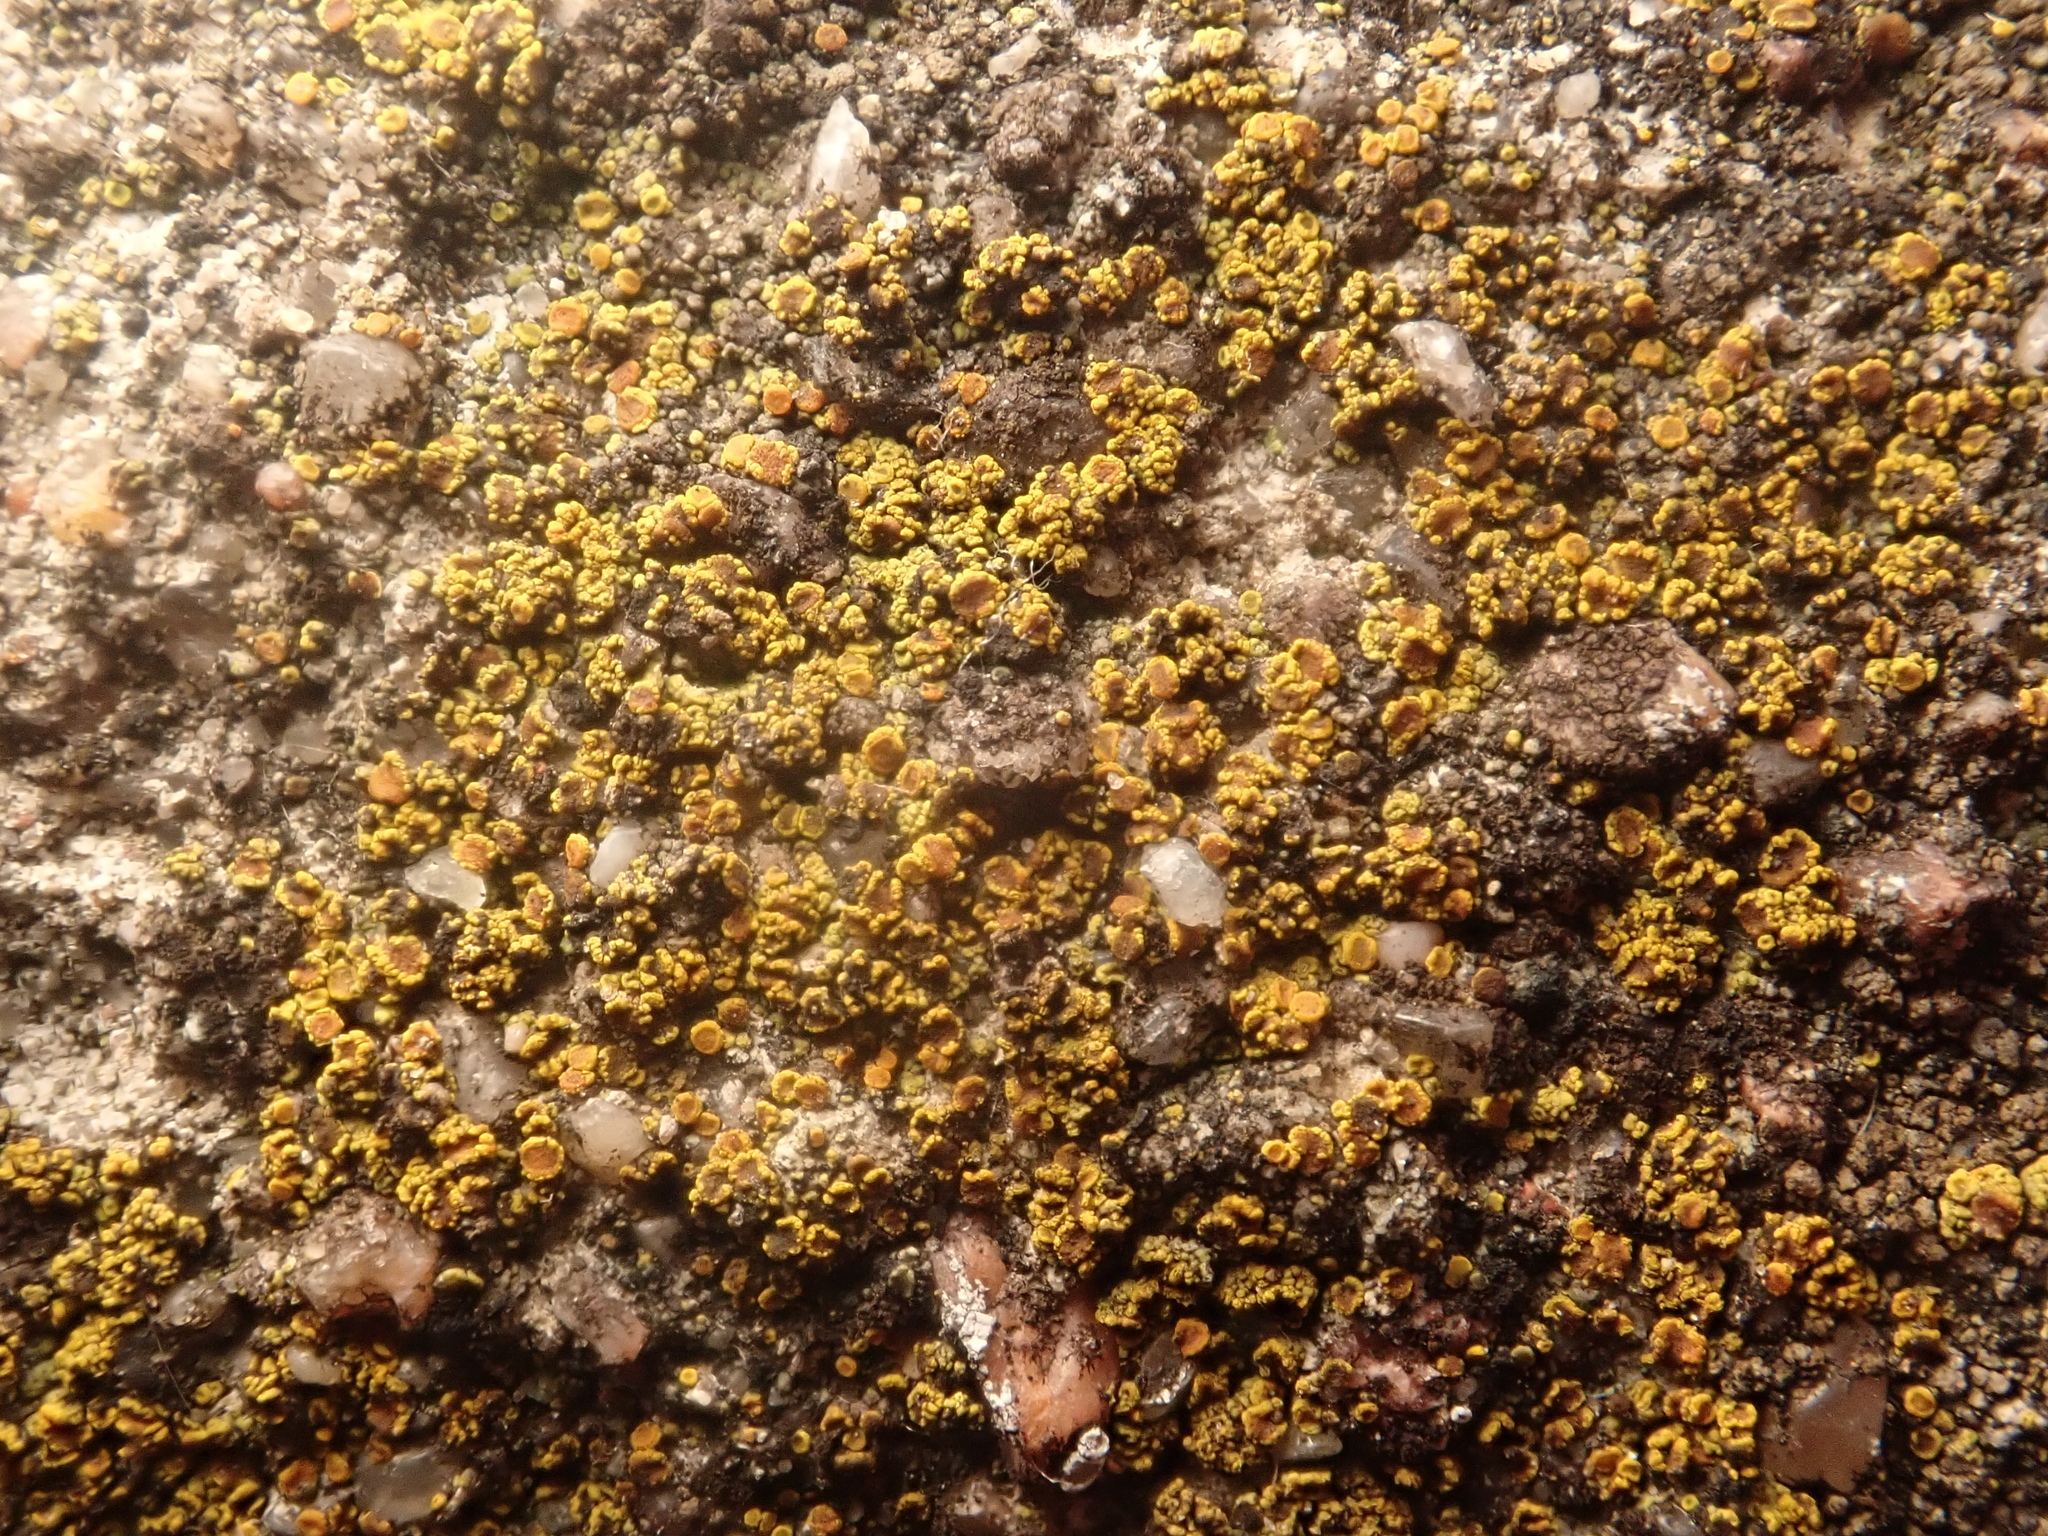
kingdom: Fungi
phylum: Ascomycota
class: Candelariomycetes
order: Candelariales
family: Candelariaceae
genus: Candelariella
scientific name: Candelariella vitellina
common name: Common goldspeck
